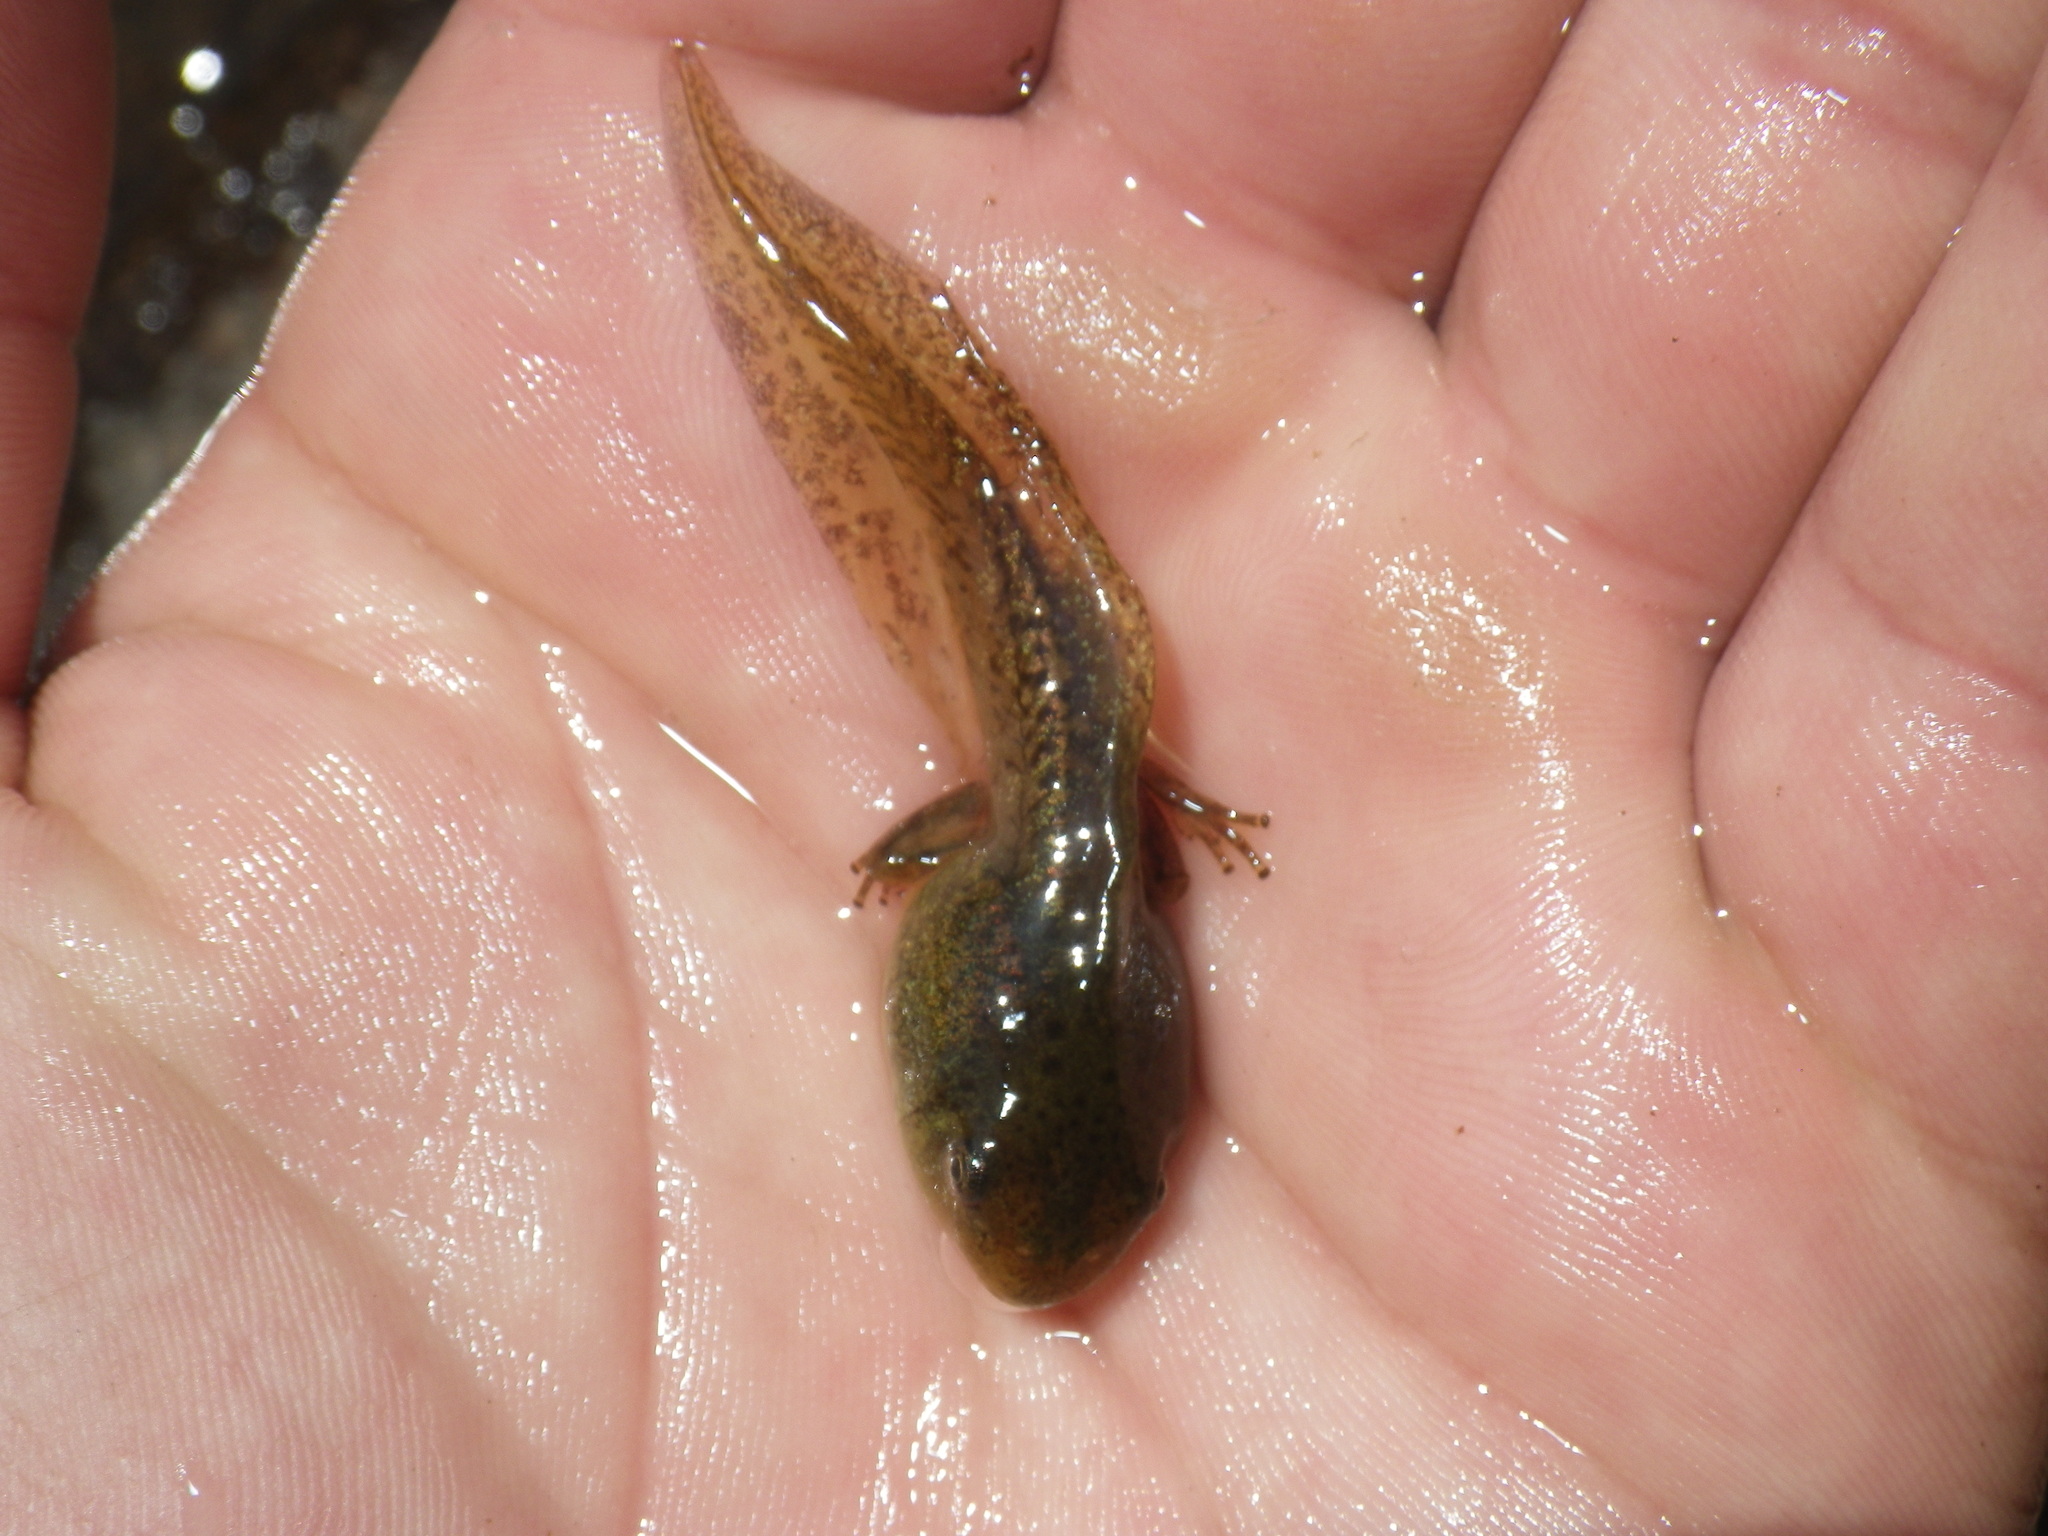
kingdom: Animalia
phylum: Chordata
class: Amphibia
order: Anura
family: Hylidae
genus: Pseudacris
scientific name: Pseudacris regilla
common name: Pacific chorus frog
